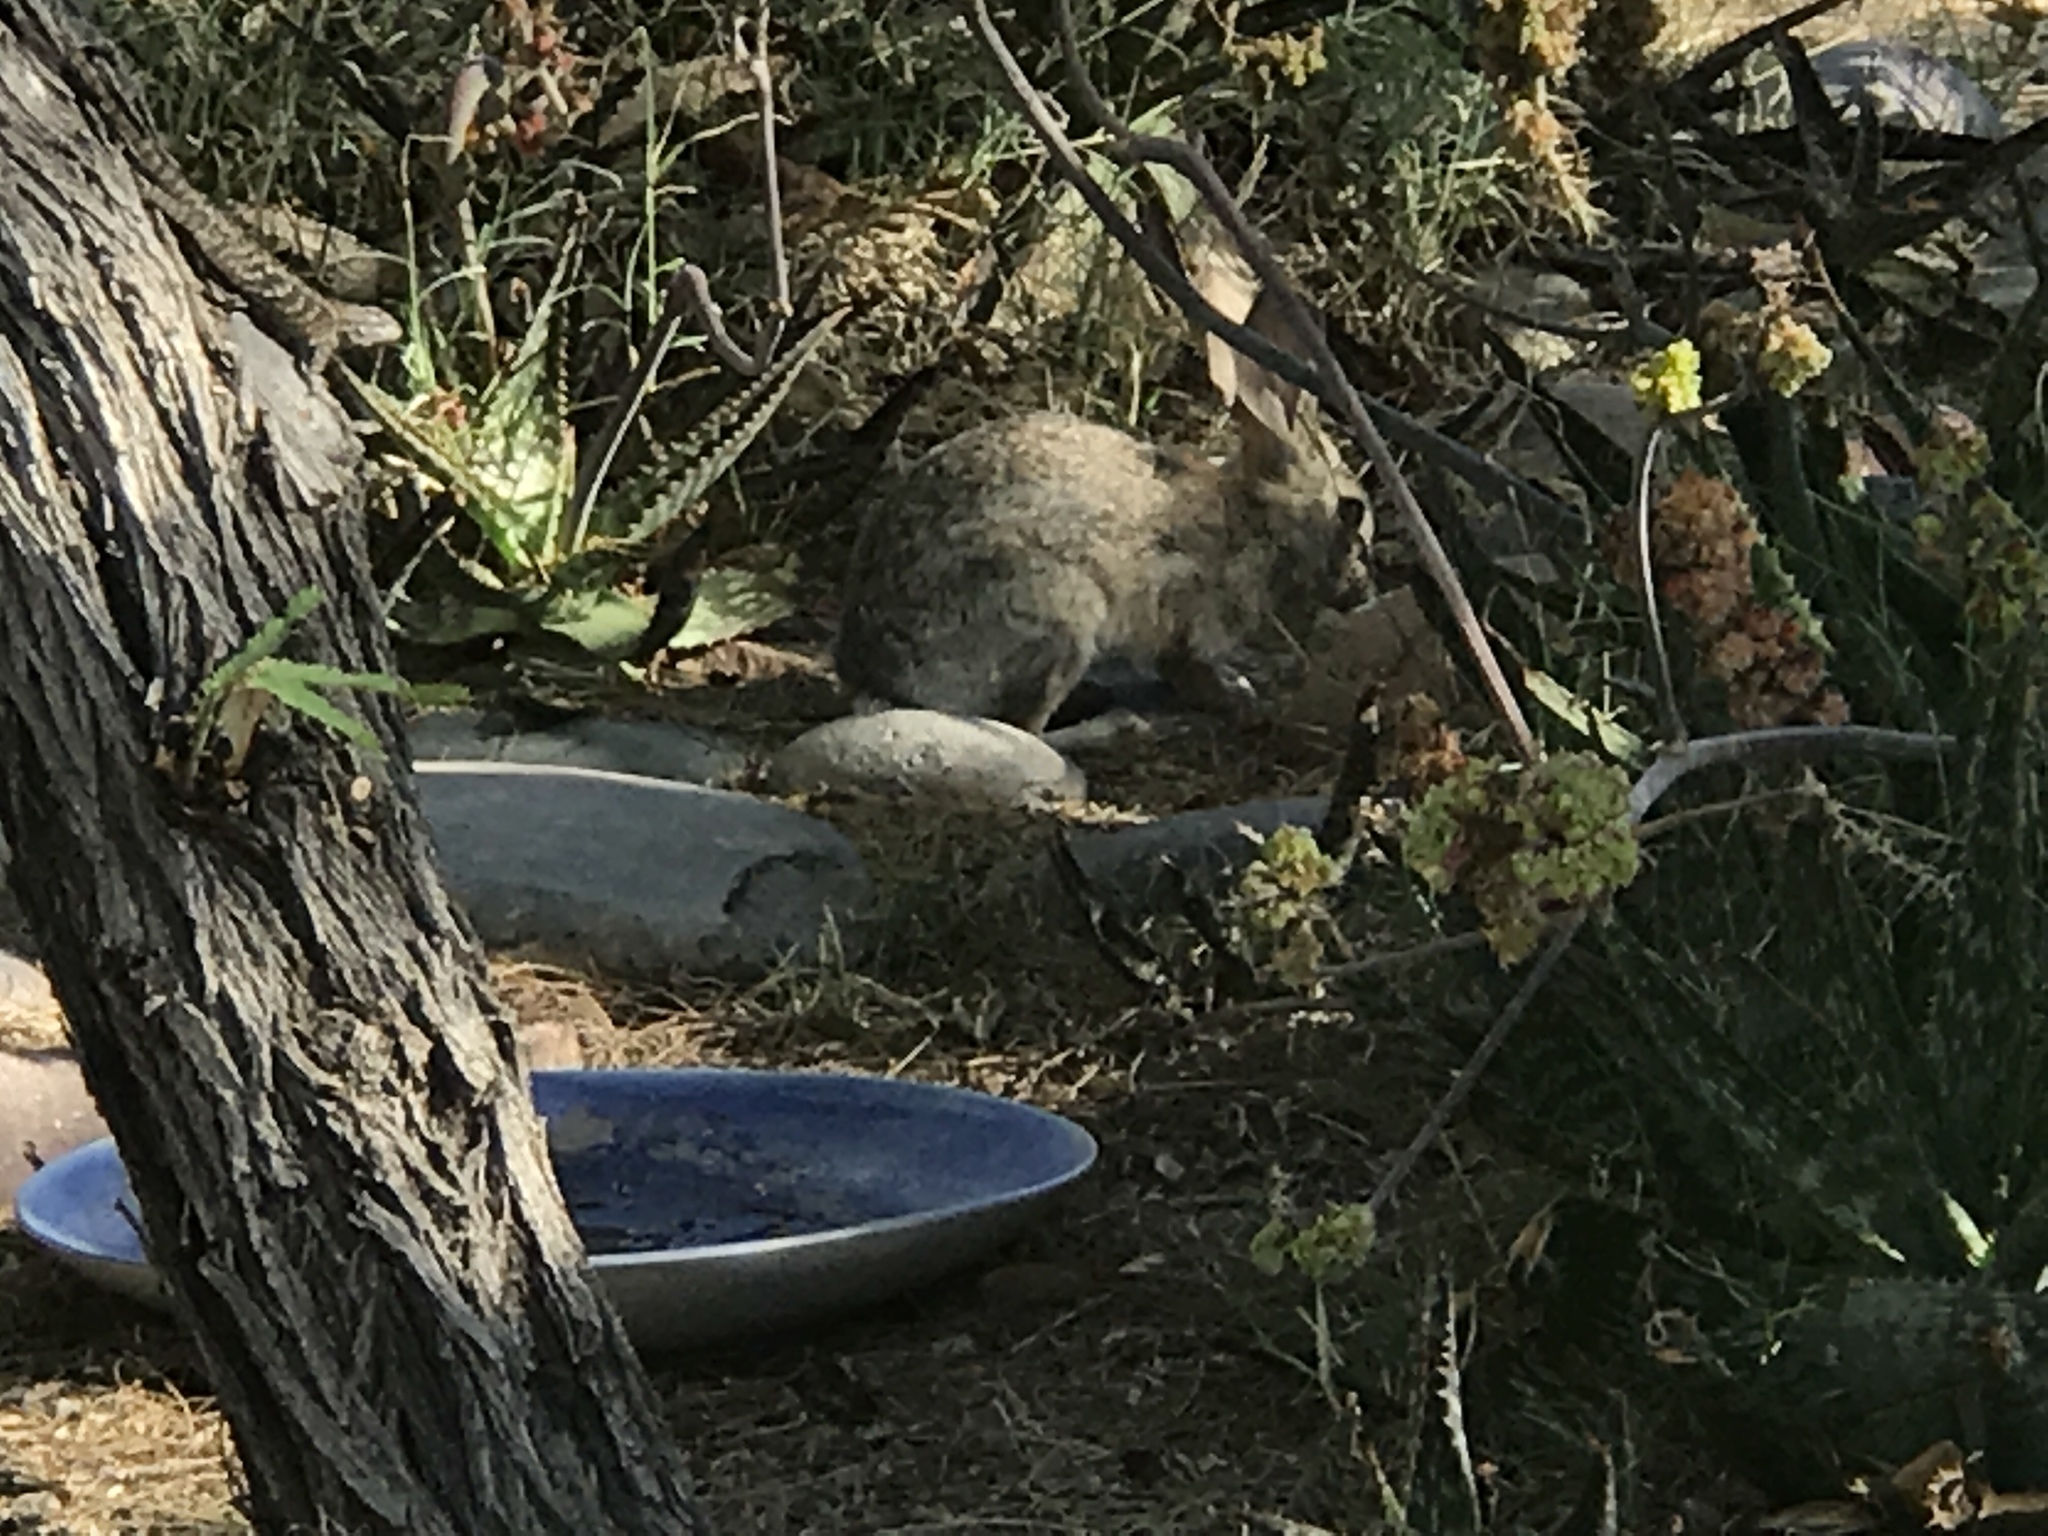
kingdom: Animalia
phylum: Chordata
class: Mammalia
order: Lagomorpha
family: Leporidae
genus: Sylvilagus
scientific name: Sylvilagus audubonii
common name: Desert cottontail
